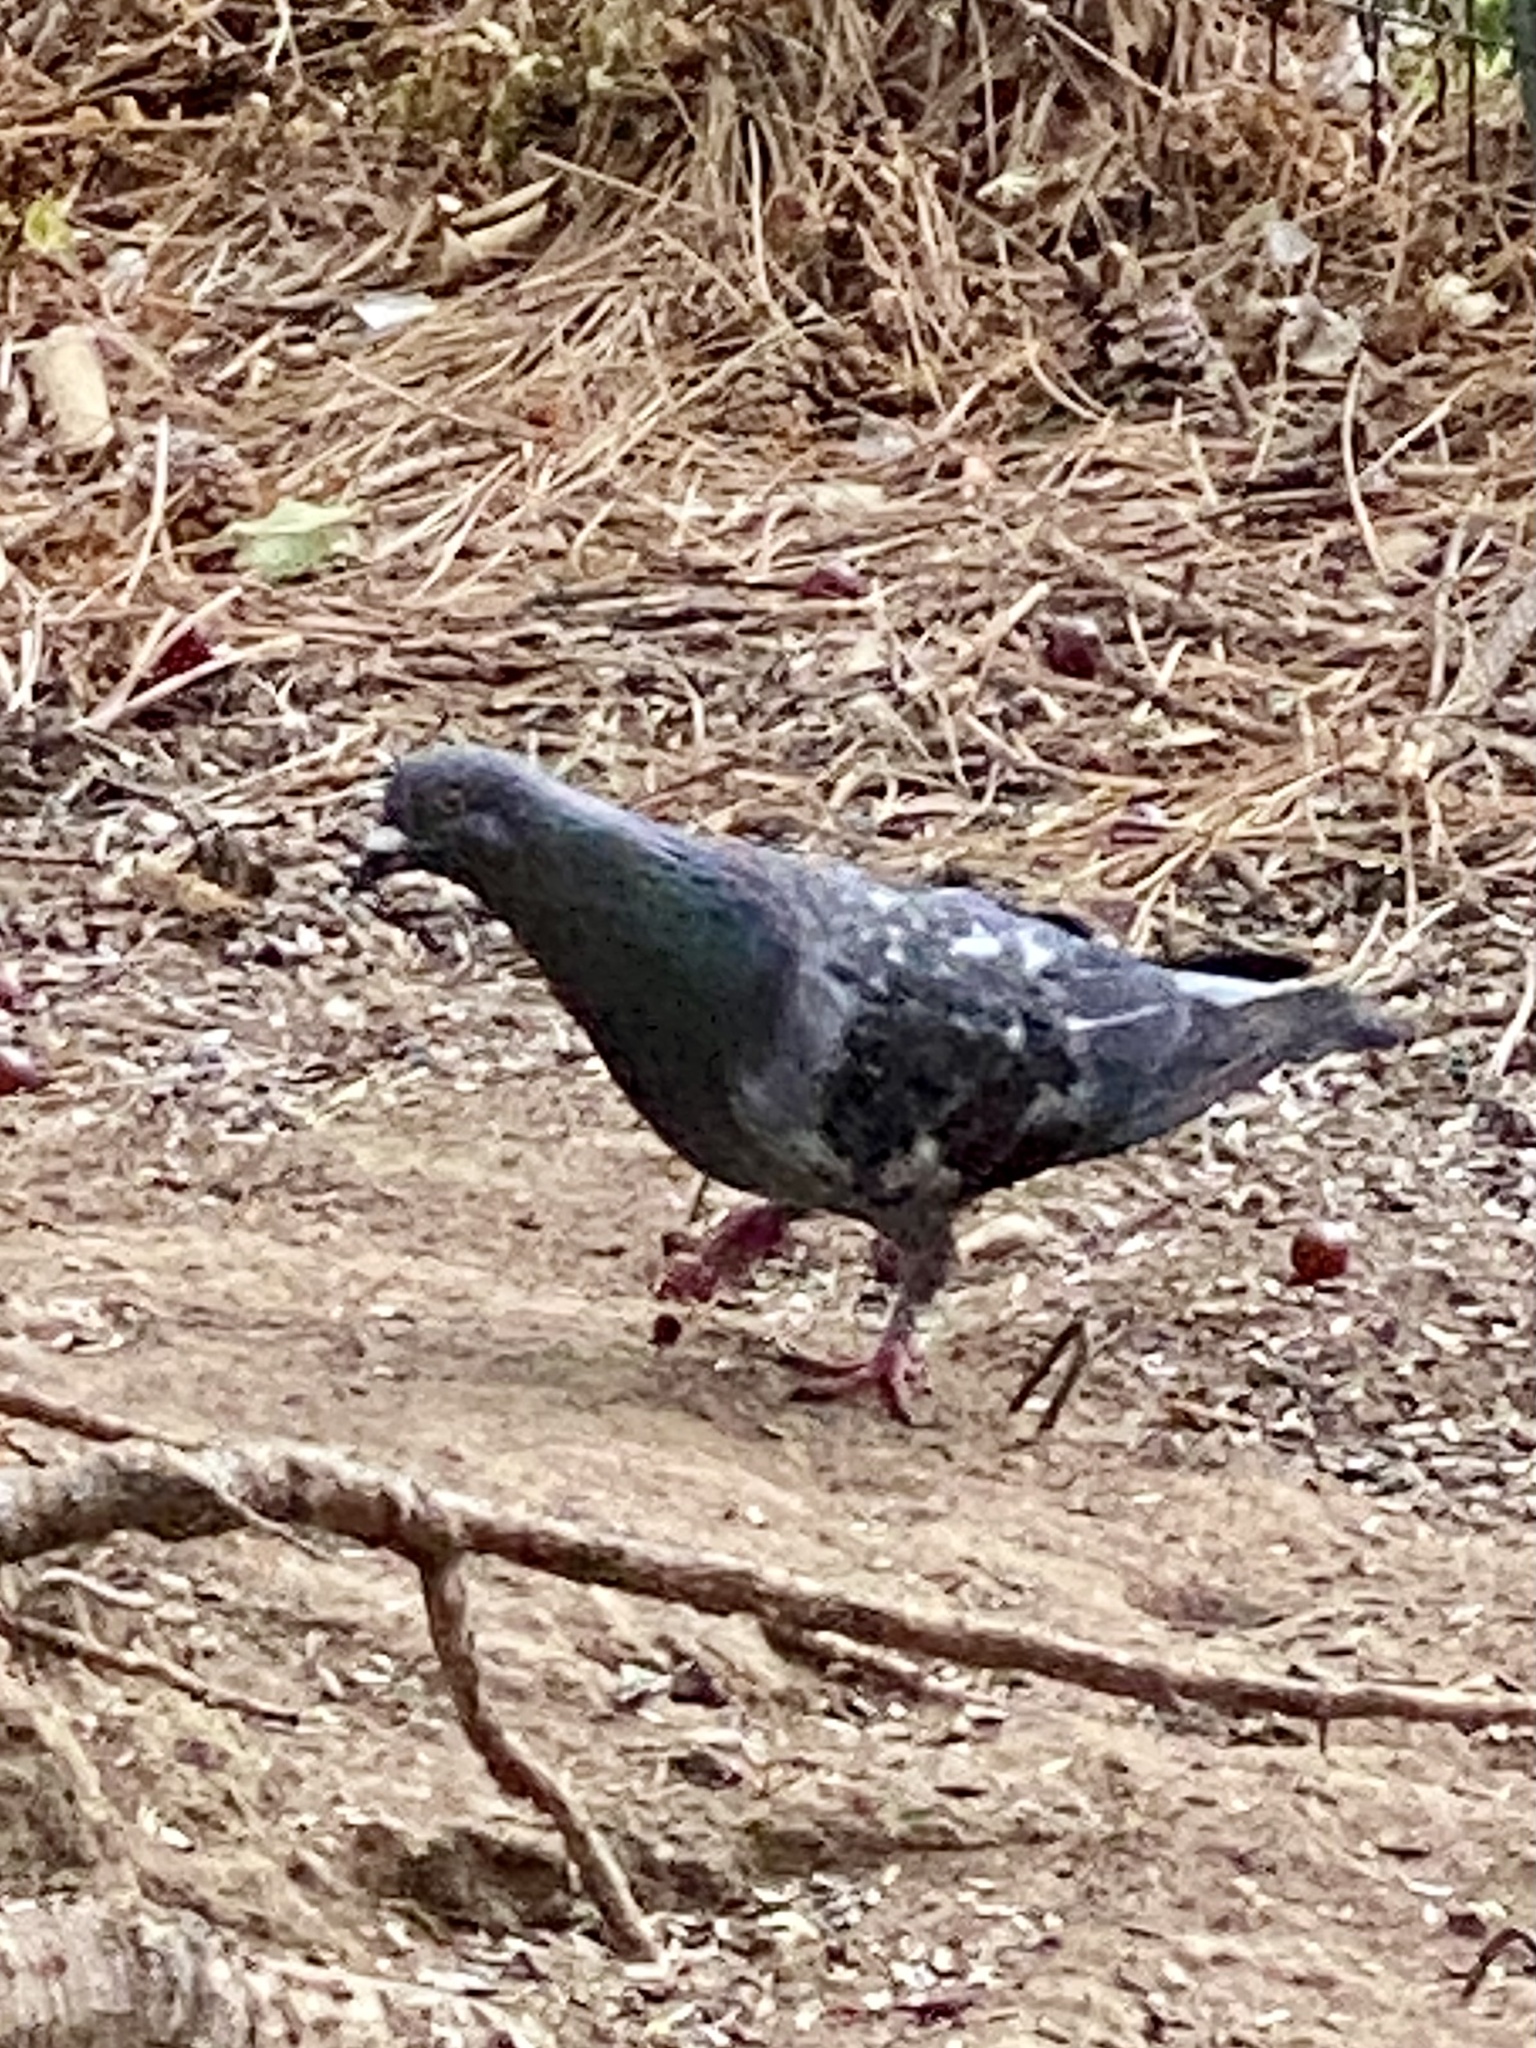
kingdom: Animalia
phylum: Chordata
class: Aves
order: Columbiformes
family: Columbidae
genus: Columba
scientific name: Columba livia
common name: Rock pigeon
